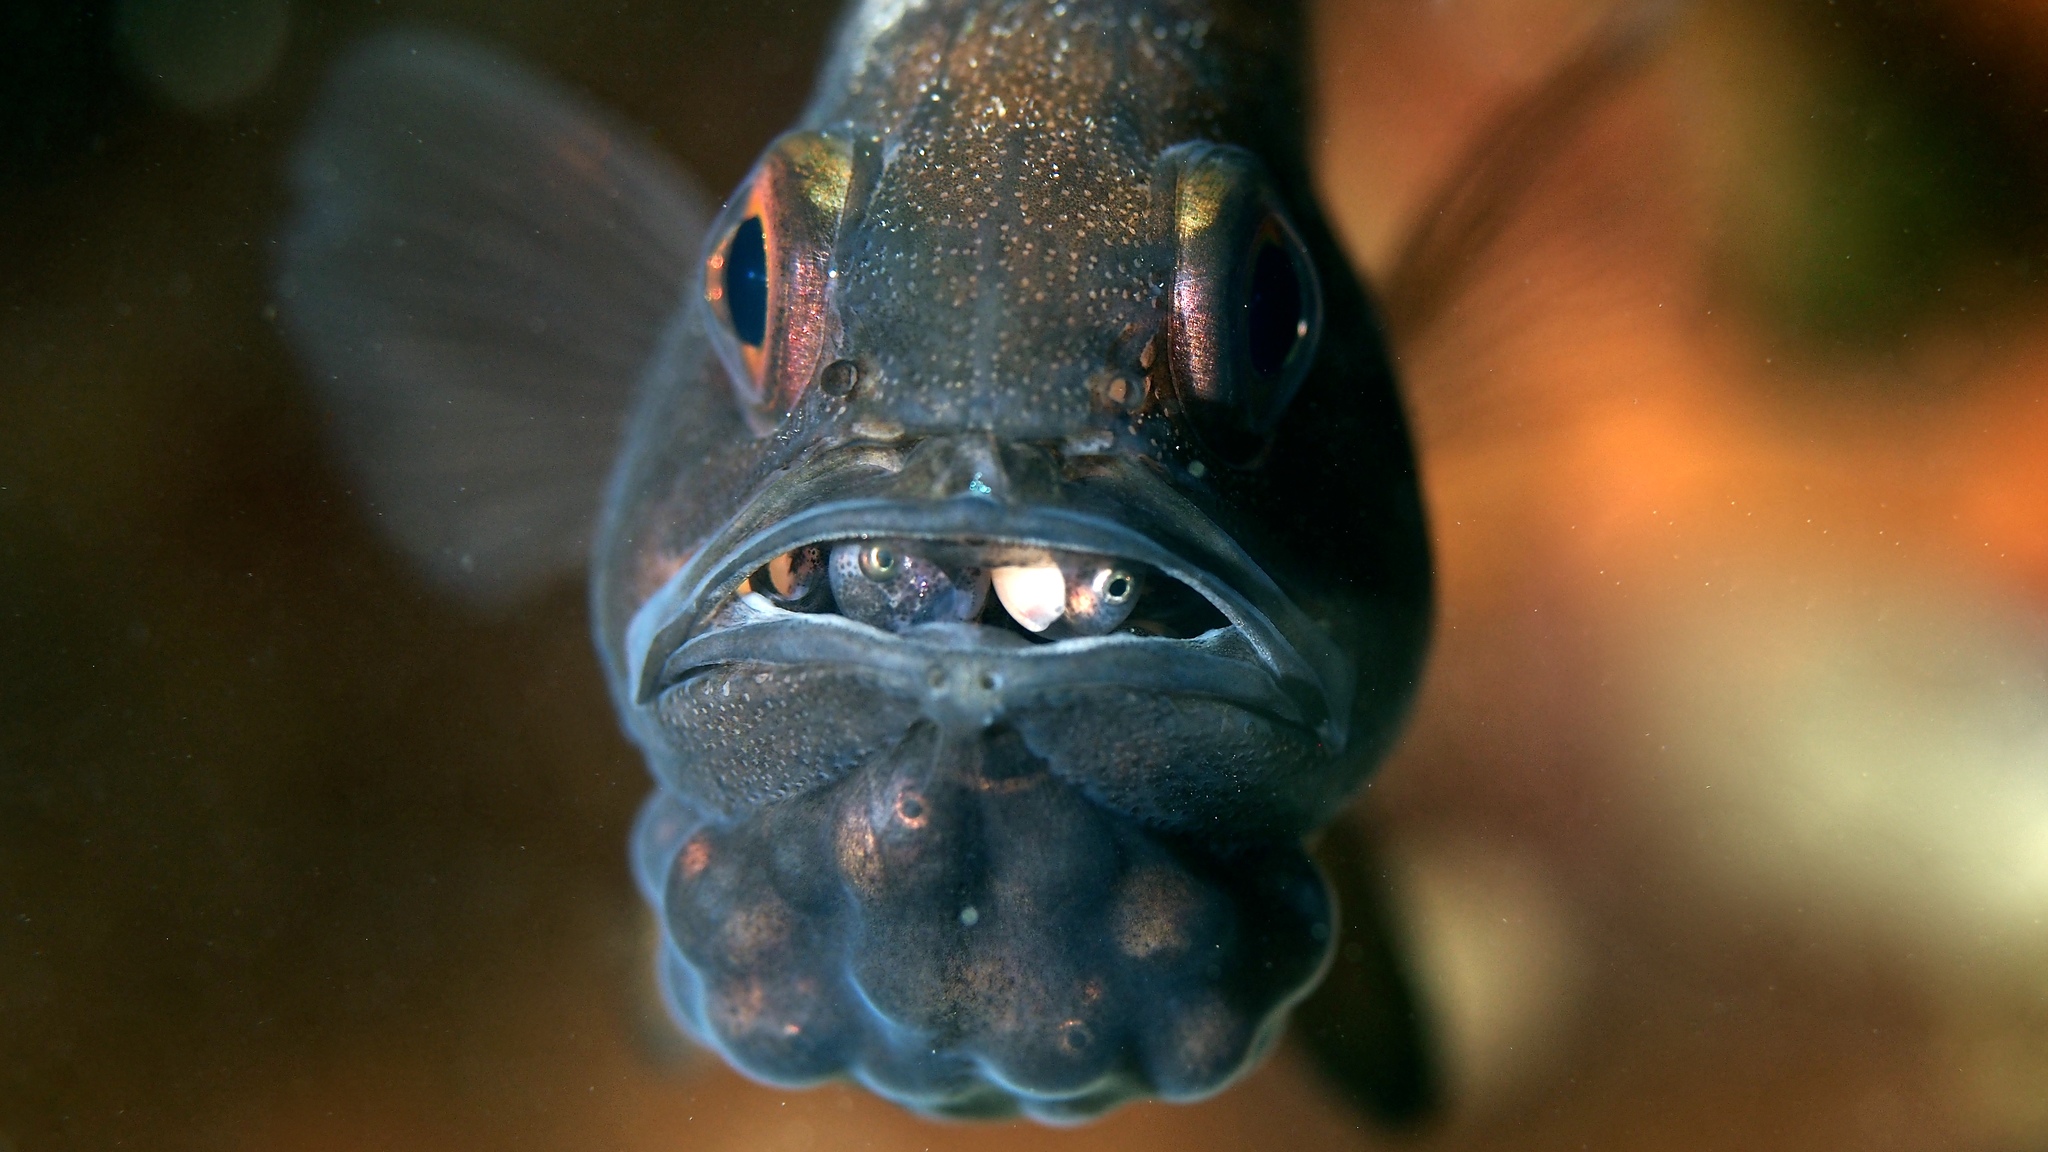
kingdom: Animalia
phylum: Chordata
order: Perciformes
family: Apogonidae
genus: Vincentia
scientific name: Vincentia conspersa
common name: Orange cardinalfish
